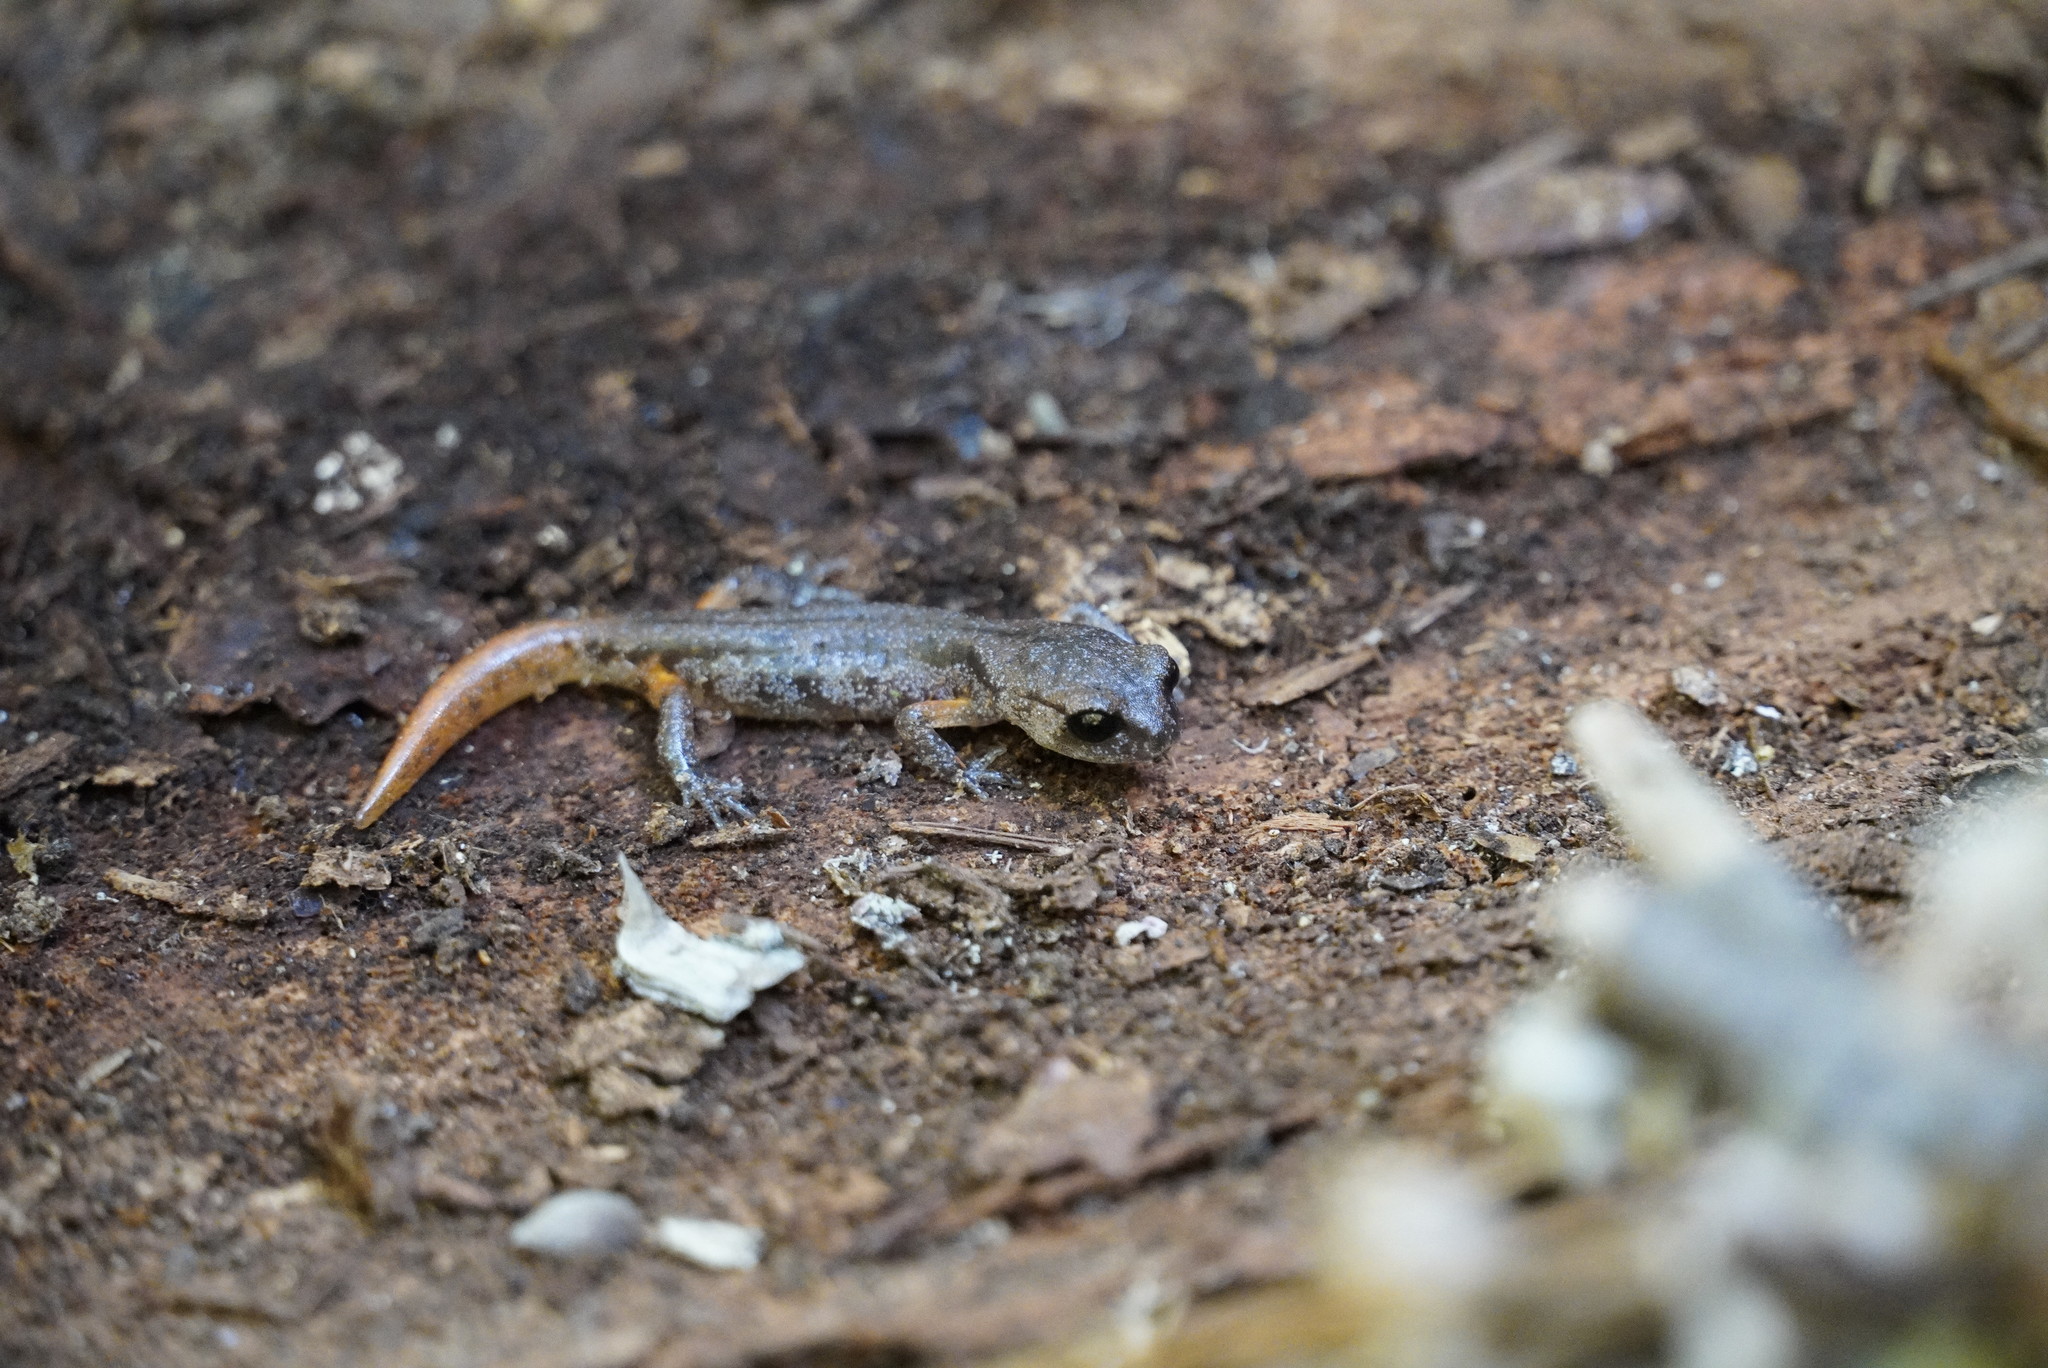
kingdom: Animalia
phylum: Chordata
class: Amphibia
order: Caudata
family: Plethodontidae
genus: Ensatina
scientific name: Ensatina eschscholtzii
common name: Ensatina
